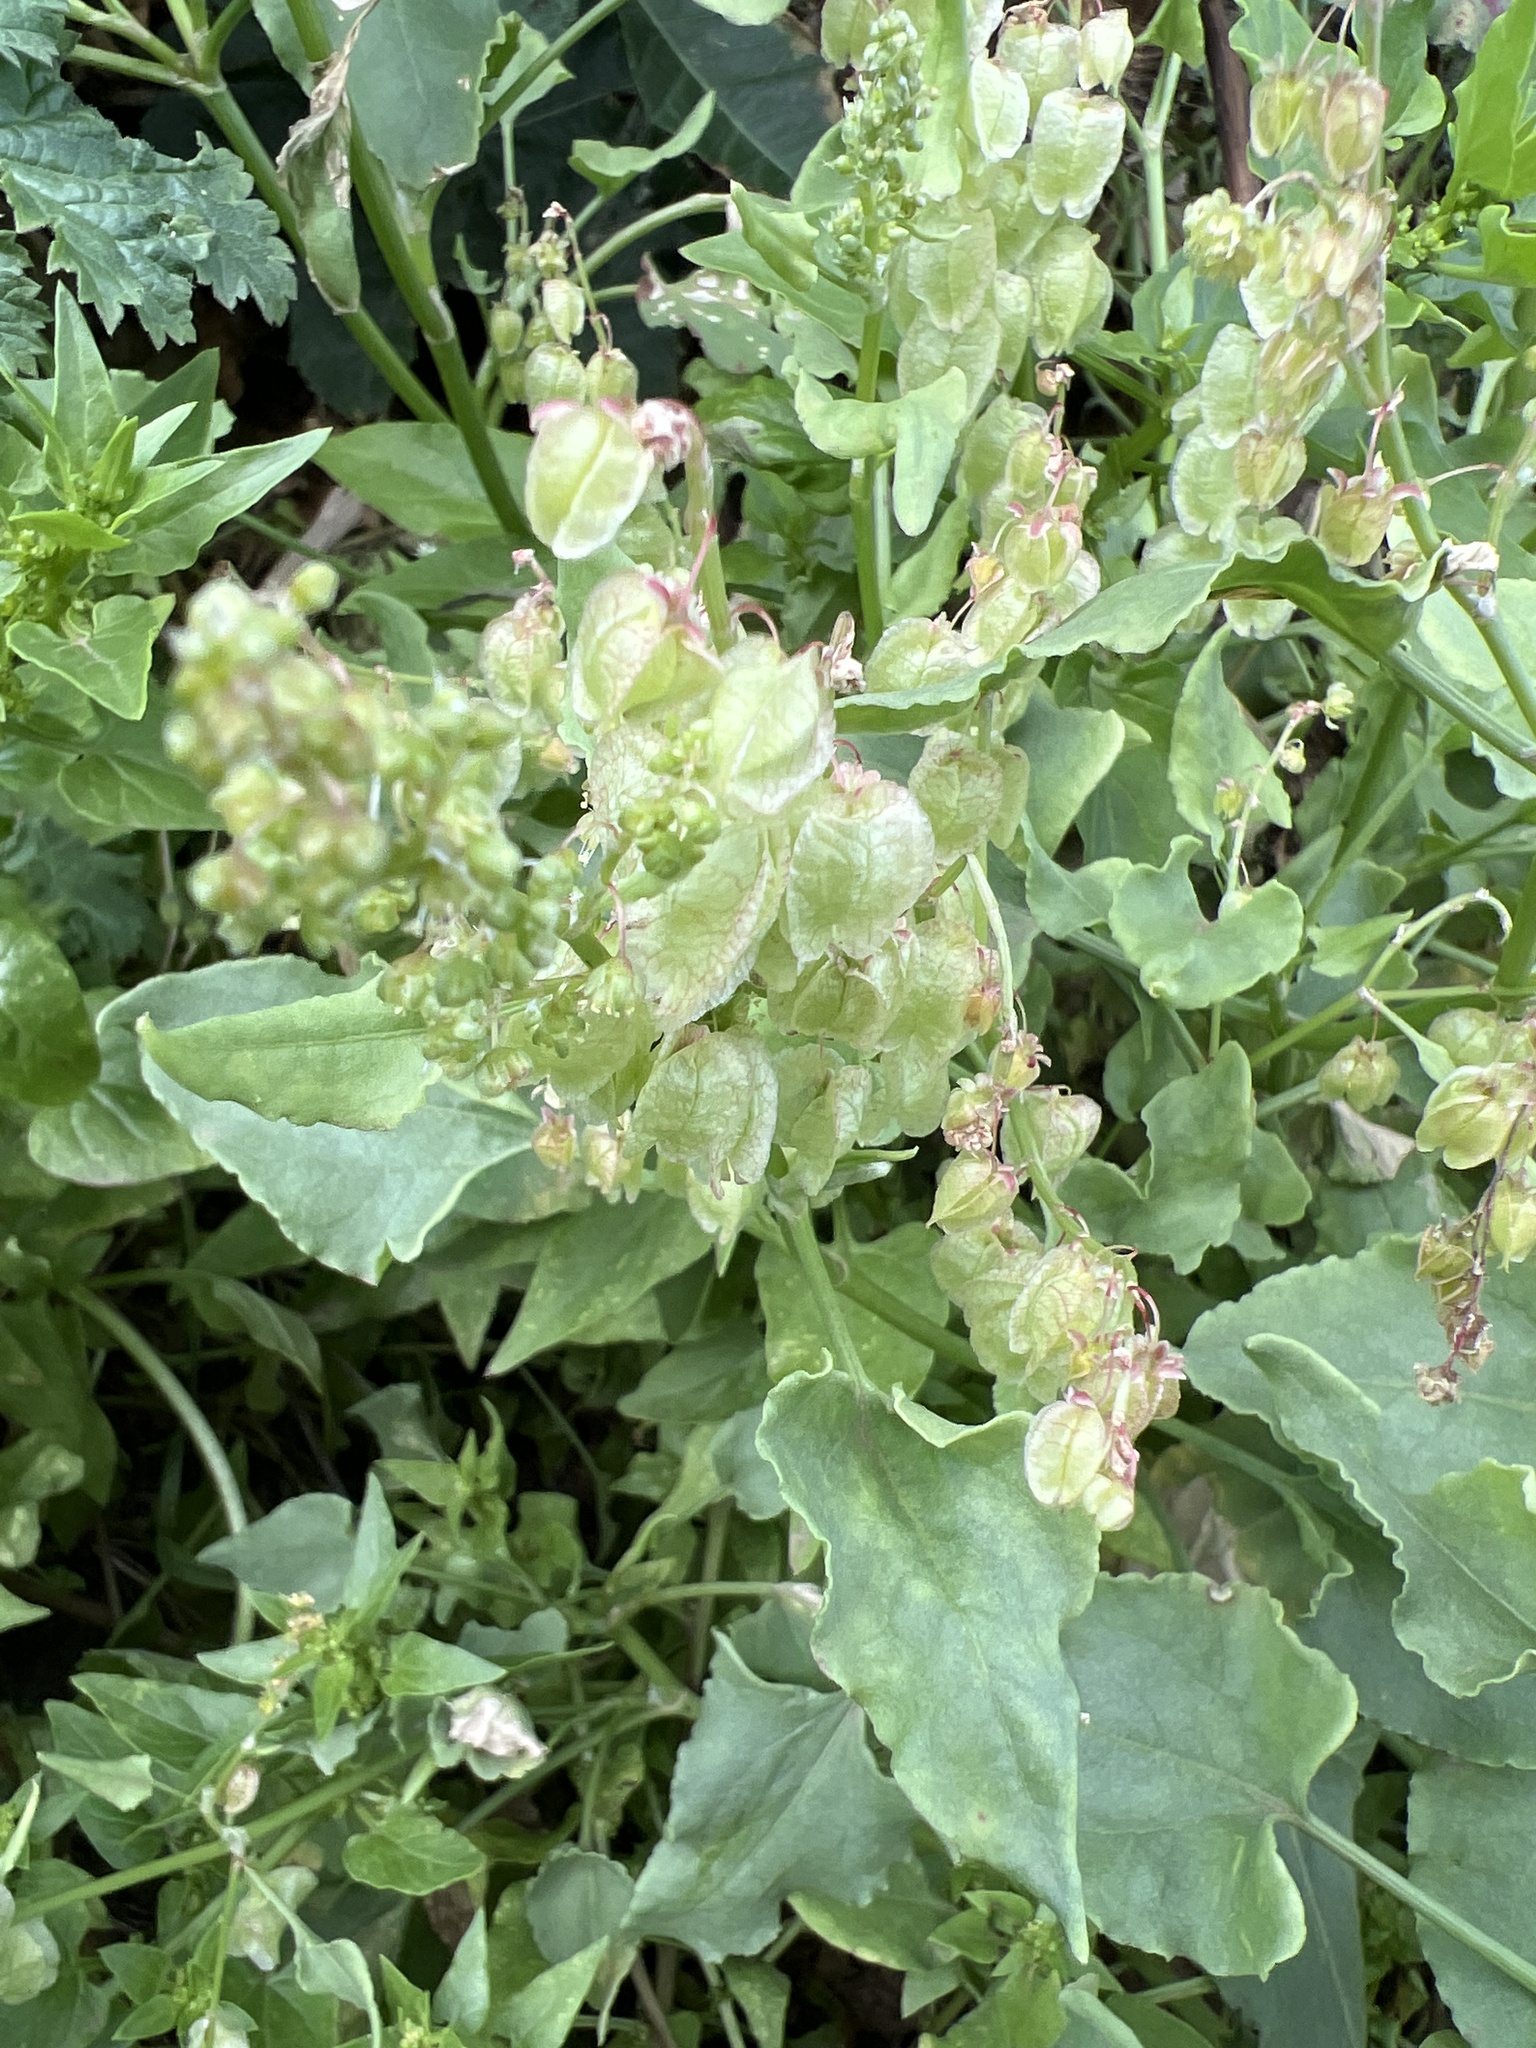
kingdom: Plantae
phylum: Tracheophyta
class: Magnoliopsida
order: Caryophyllales
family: Polygonaceae
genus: Rumex
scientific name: Rumex vesicarius
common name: Bladder dock
